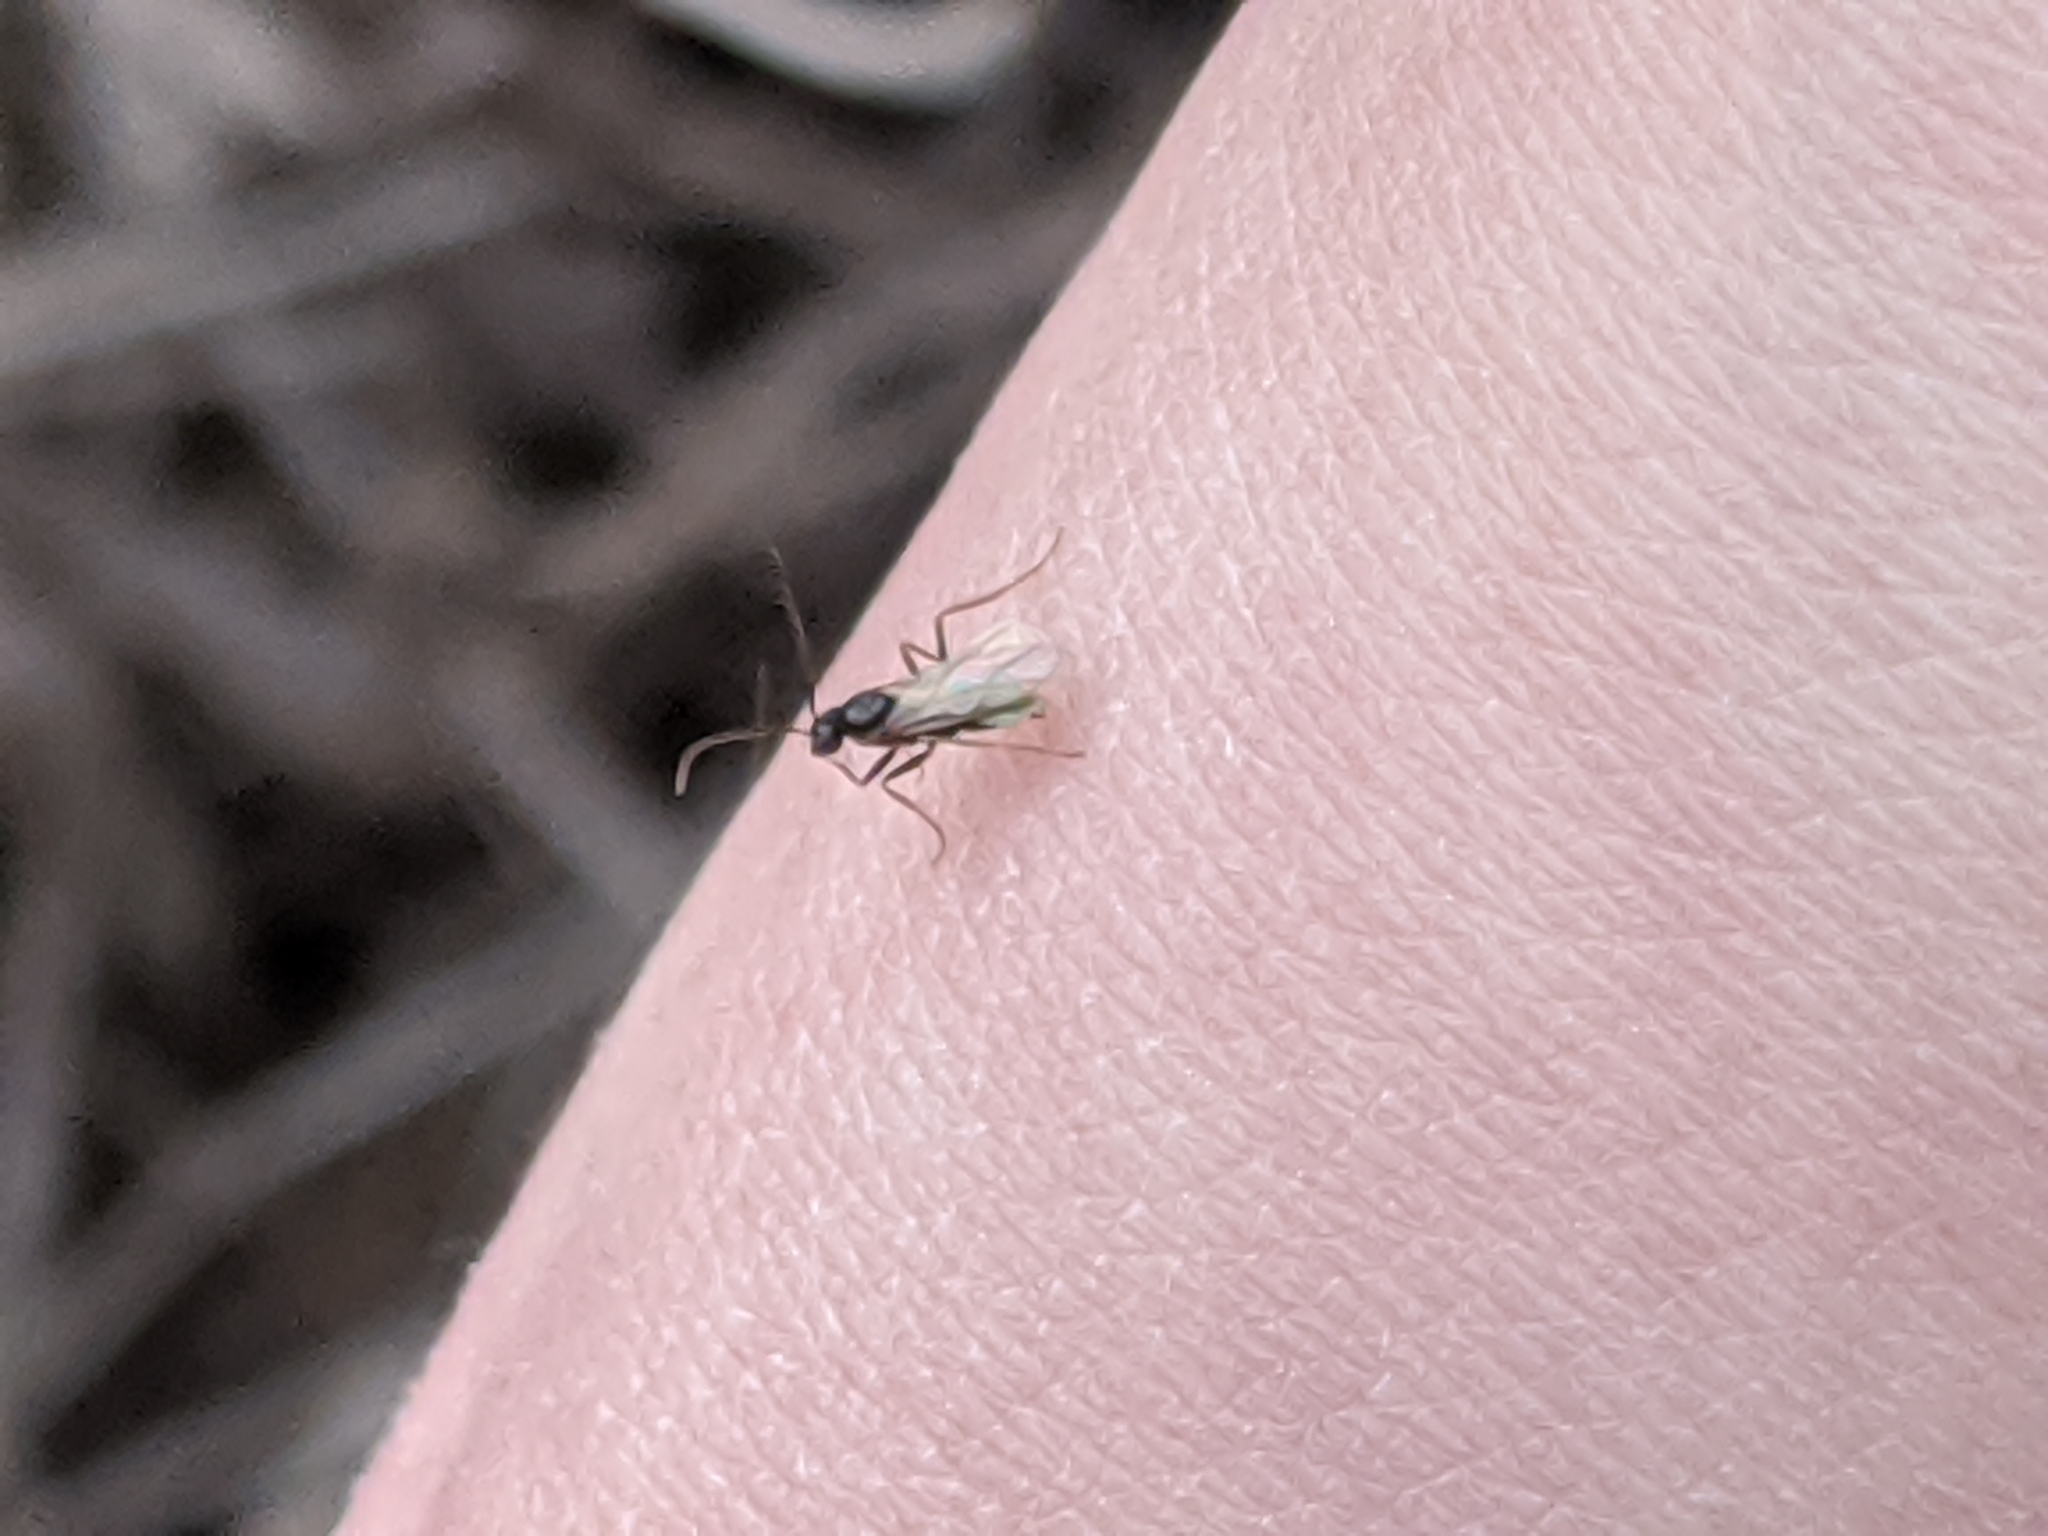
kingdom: Animalia
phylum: Arthropoda
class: Insecta
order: Hymenoptera
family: Formicidae
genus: Prenolepis
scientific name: Prenolepis imparis
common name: Small honey ant
